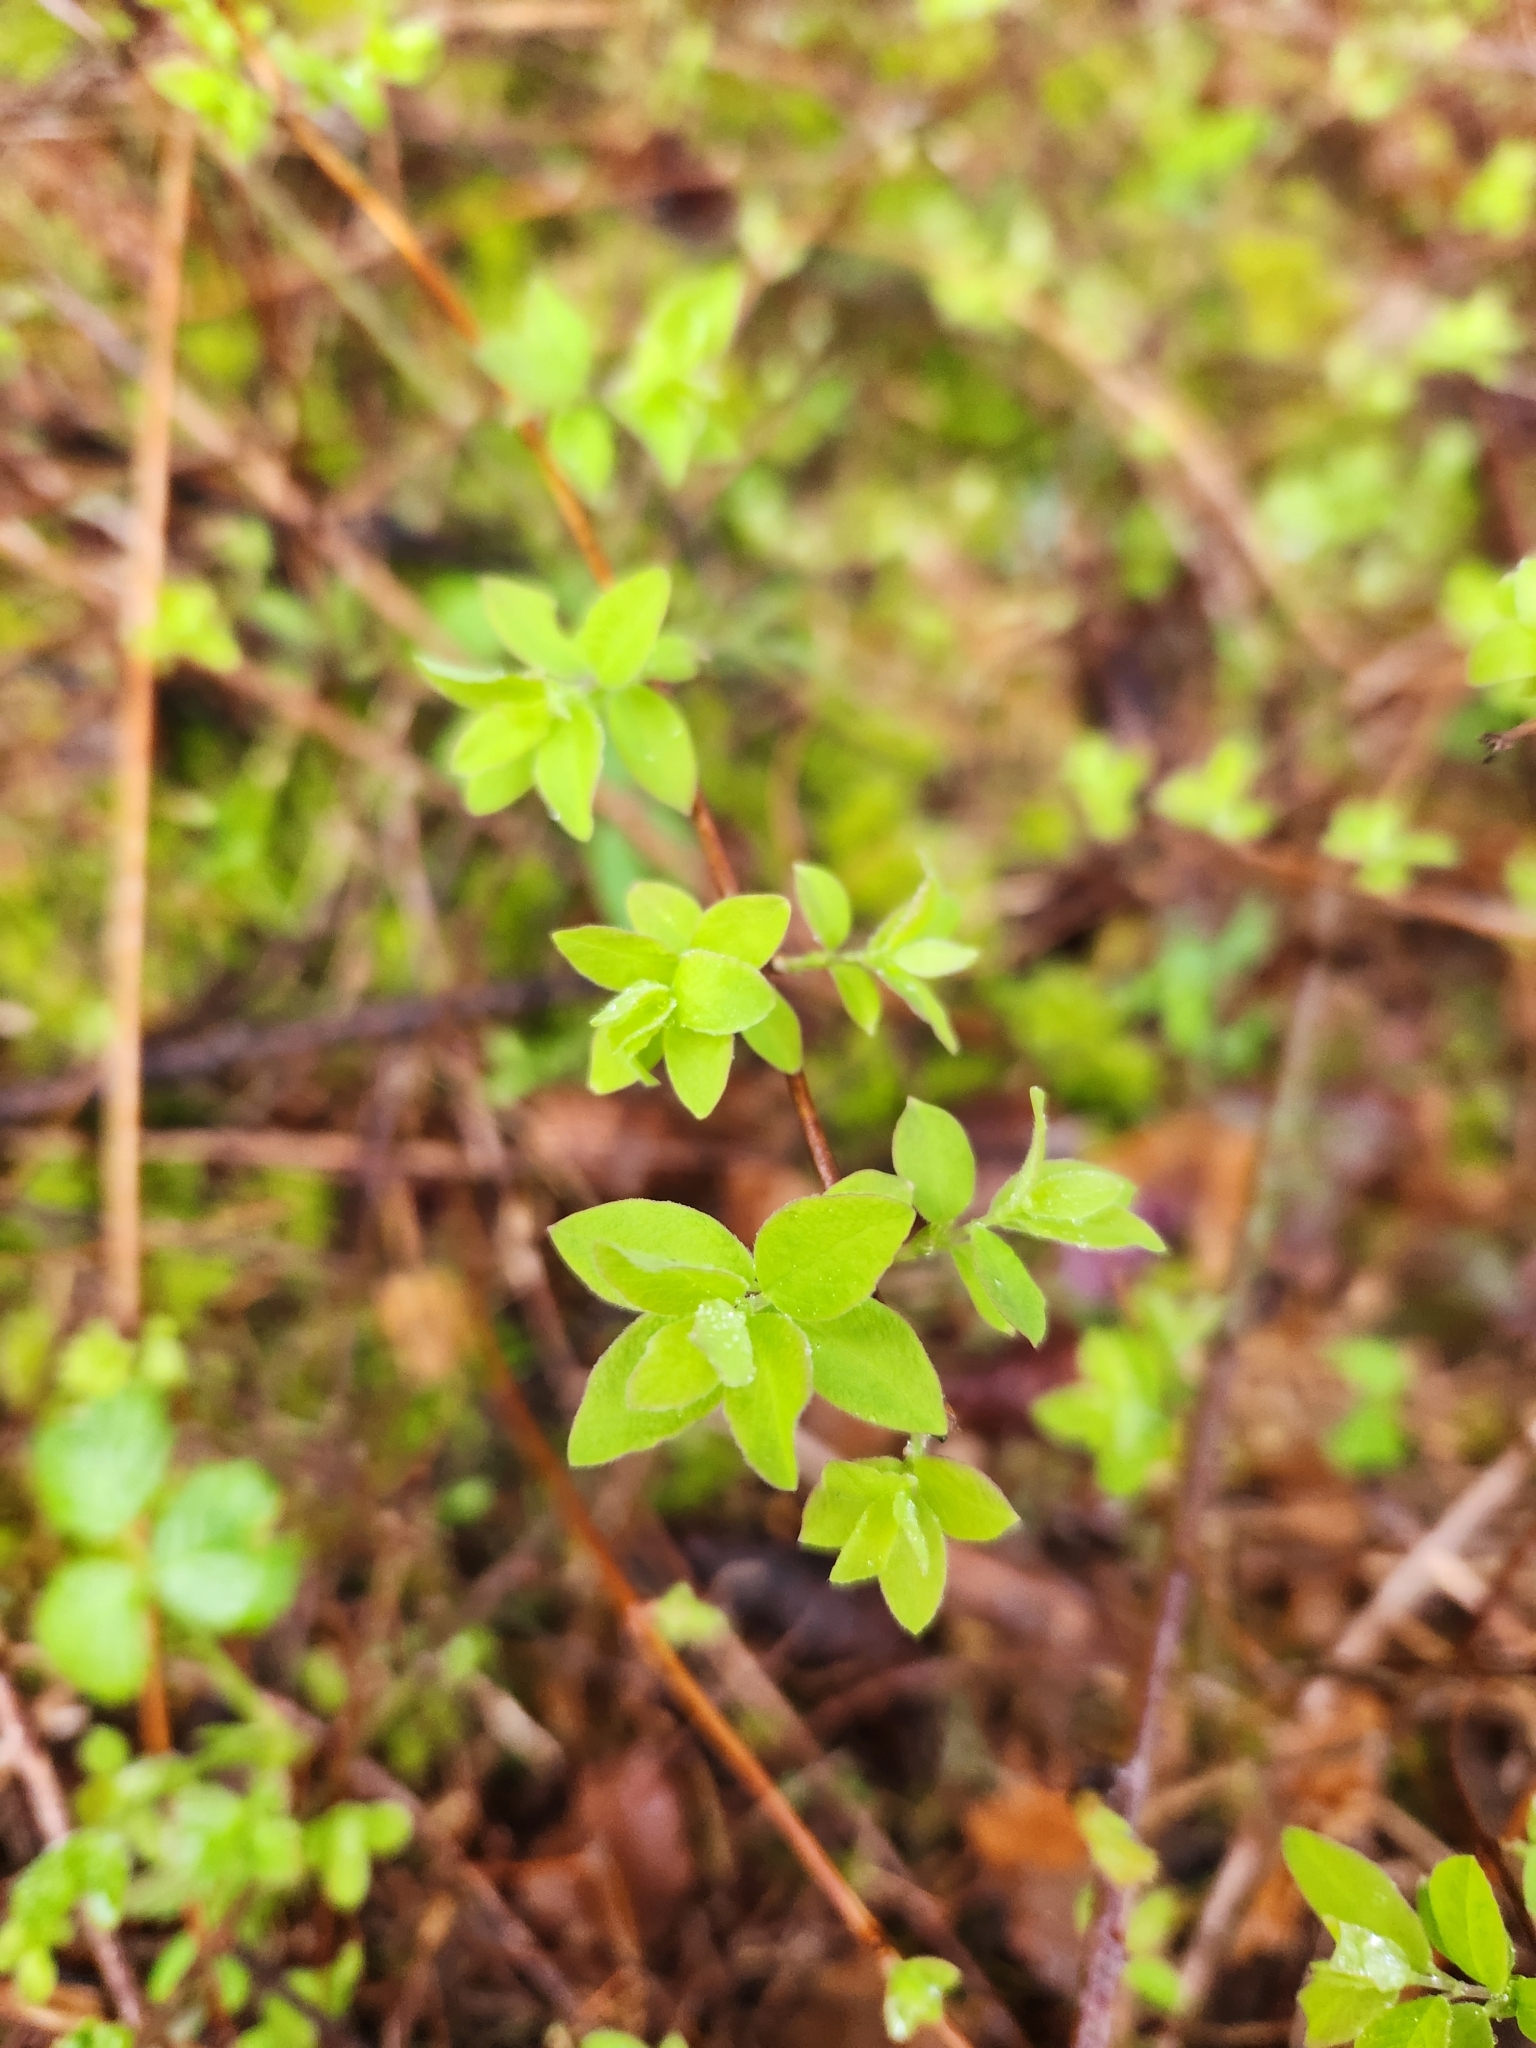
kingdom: Plantae
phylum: Tracheophyta
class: Magnoliopsida
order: Dipsacales
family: Caprifoliaceae
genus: Symphoricarpos
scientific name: Symphoricarpos mollis
